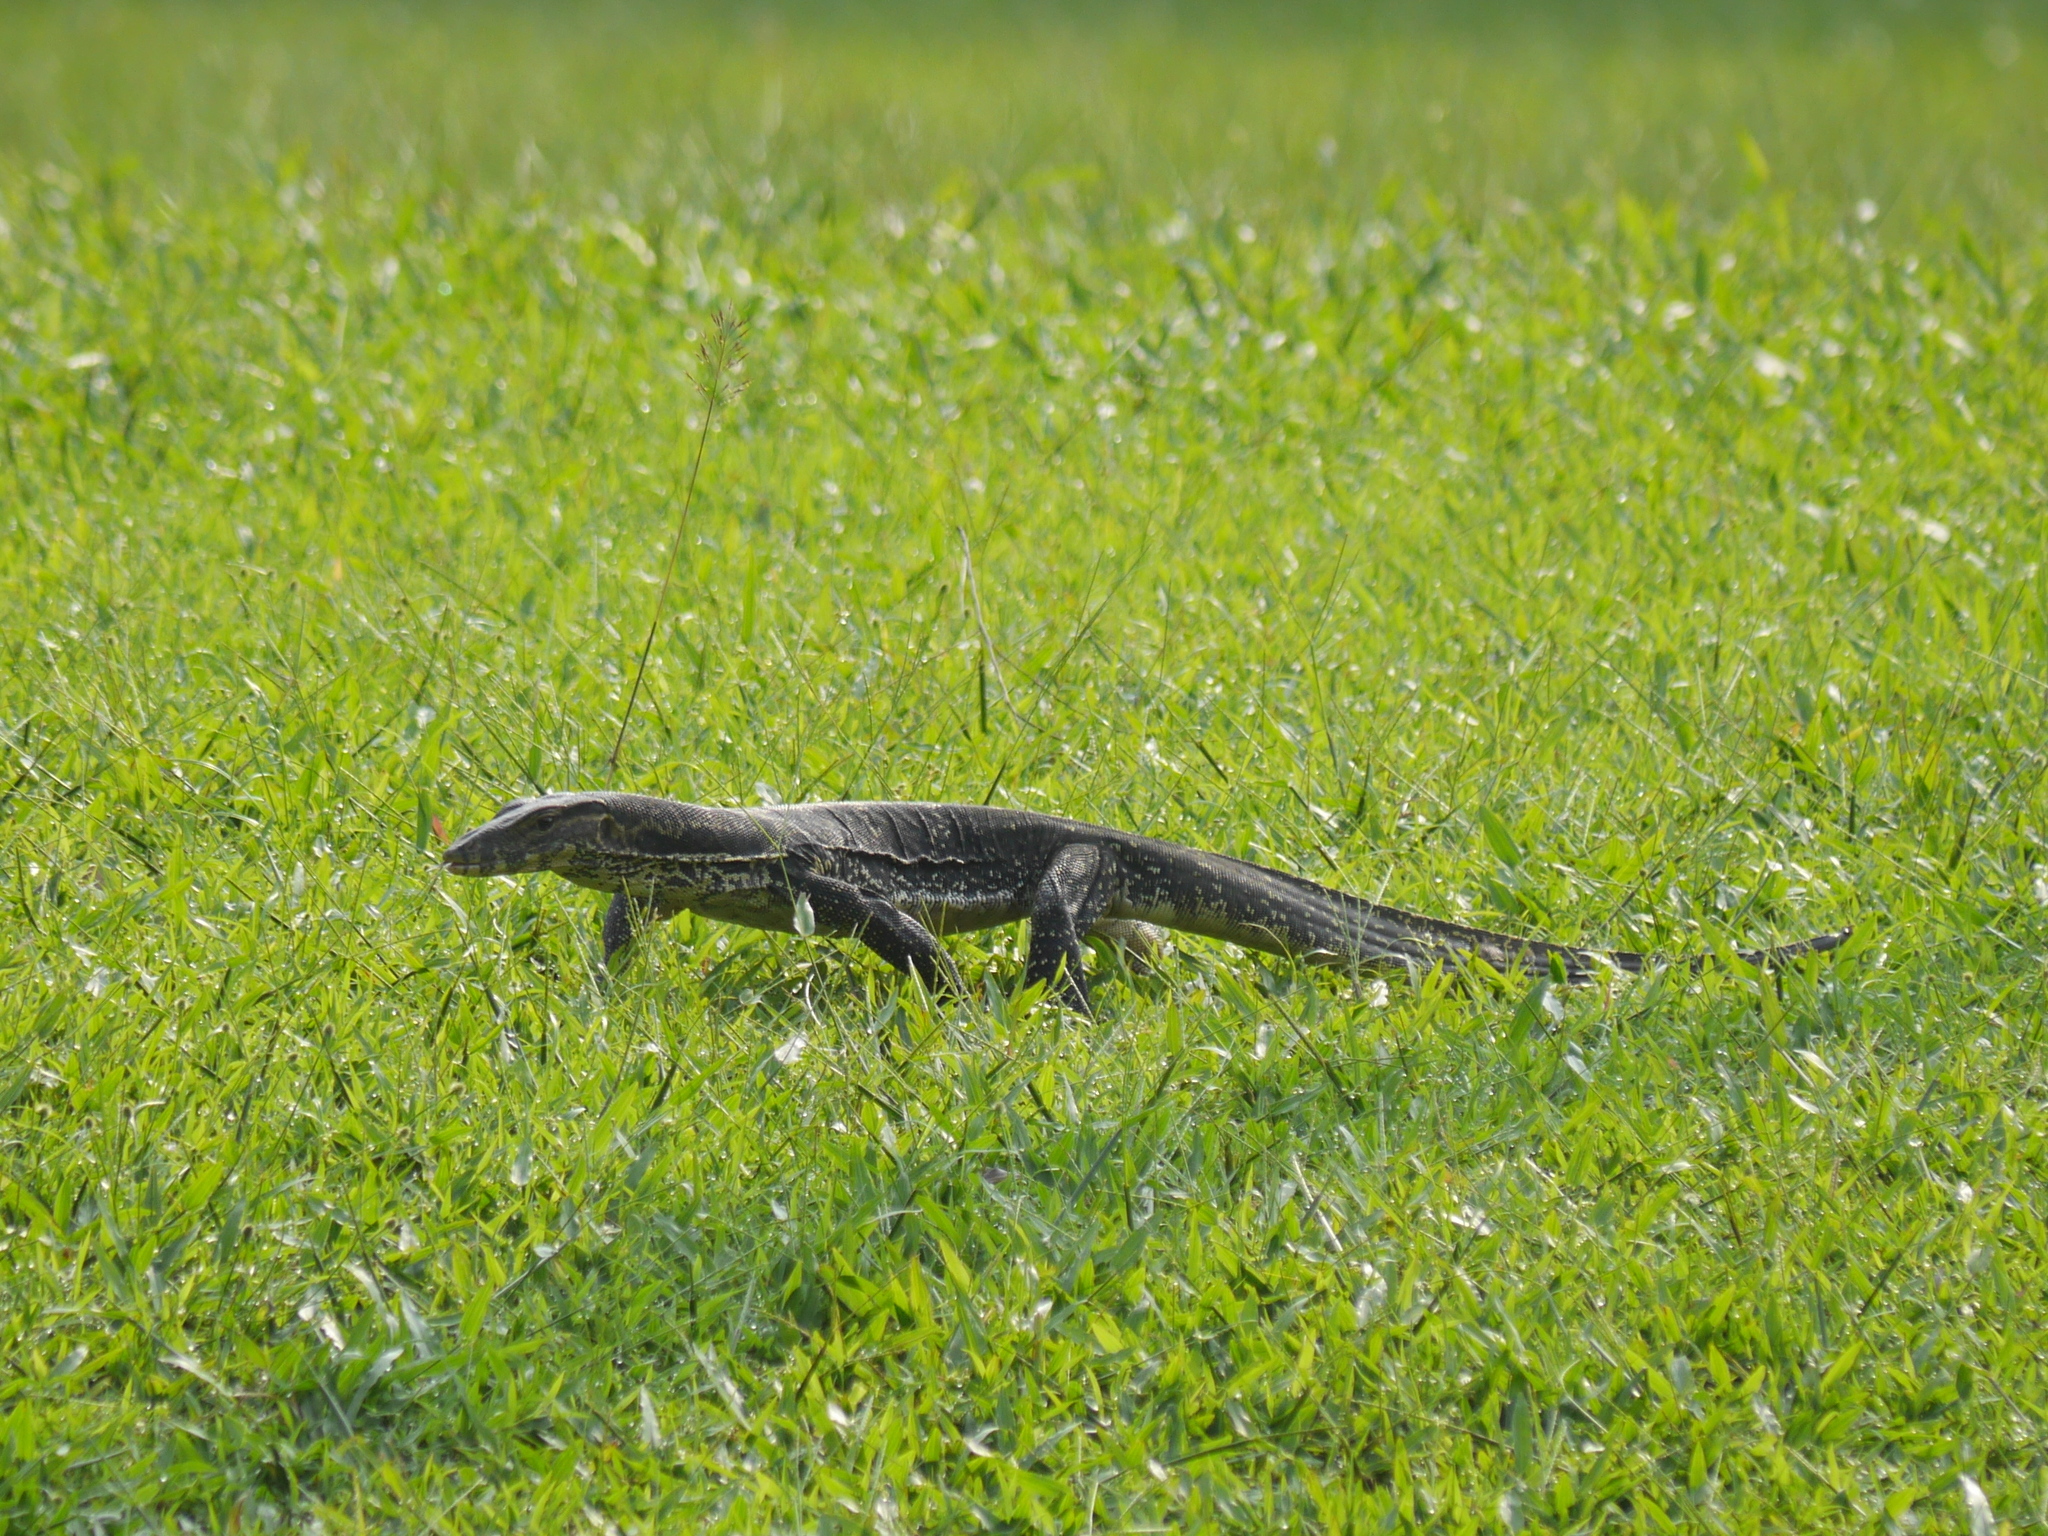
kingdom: Animalia
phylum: Chordata
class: Squamata
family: Varanidae
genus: Varanus
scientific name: Varanus salvator
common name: Common water monitor
